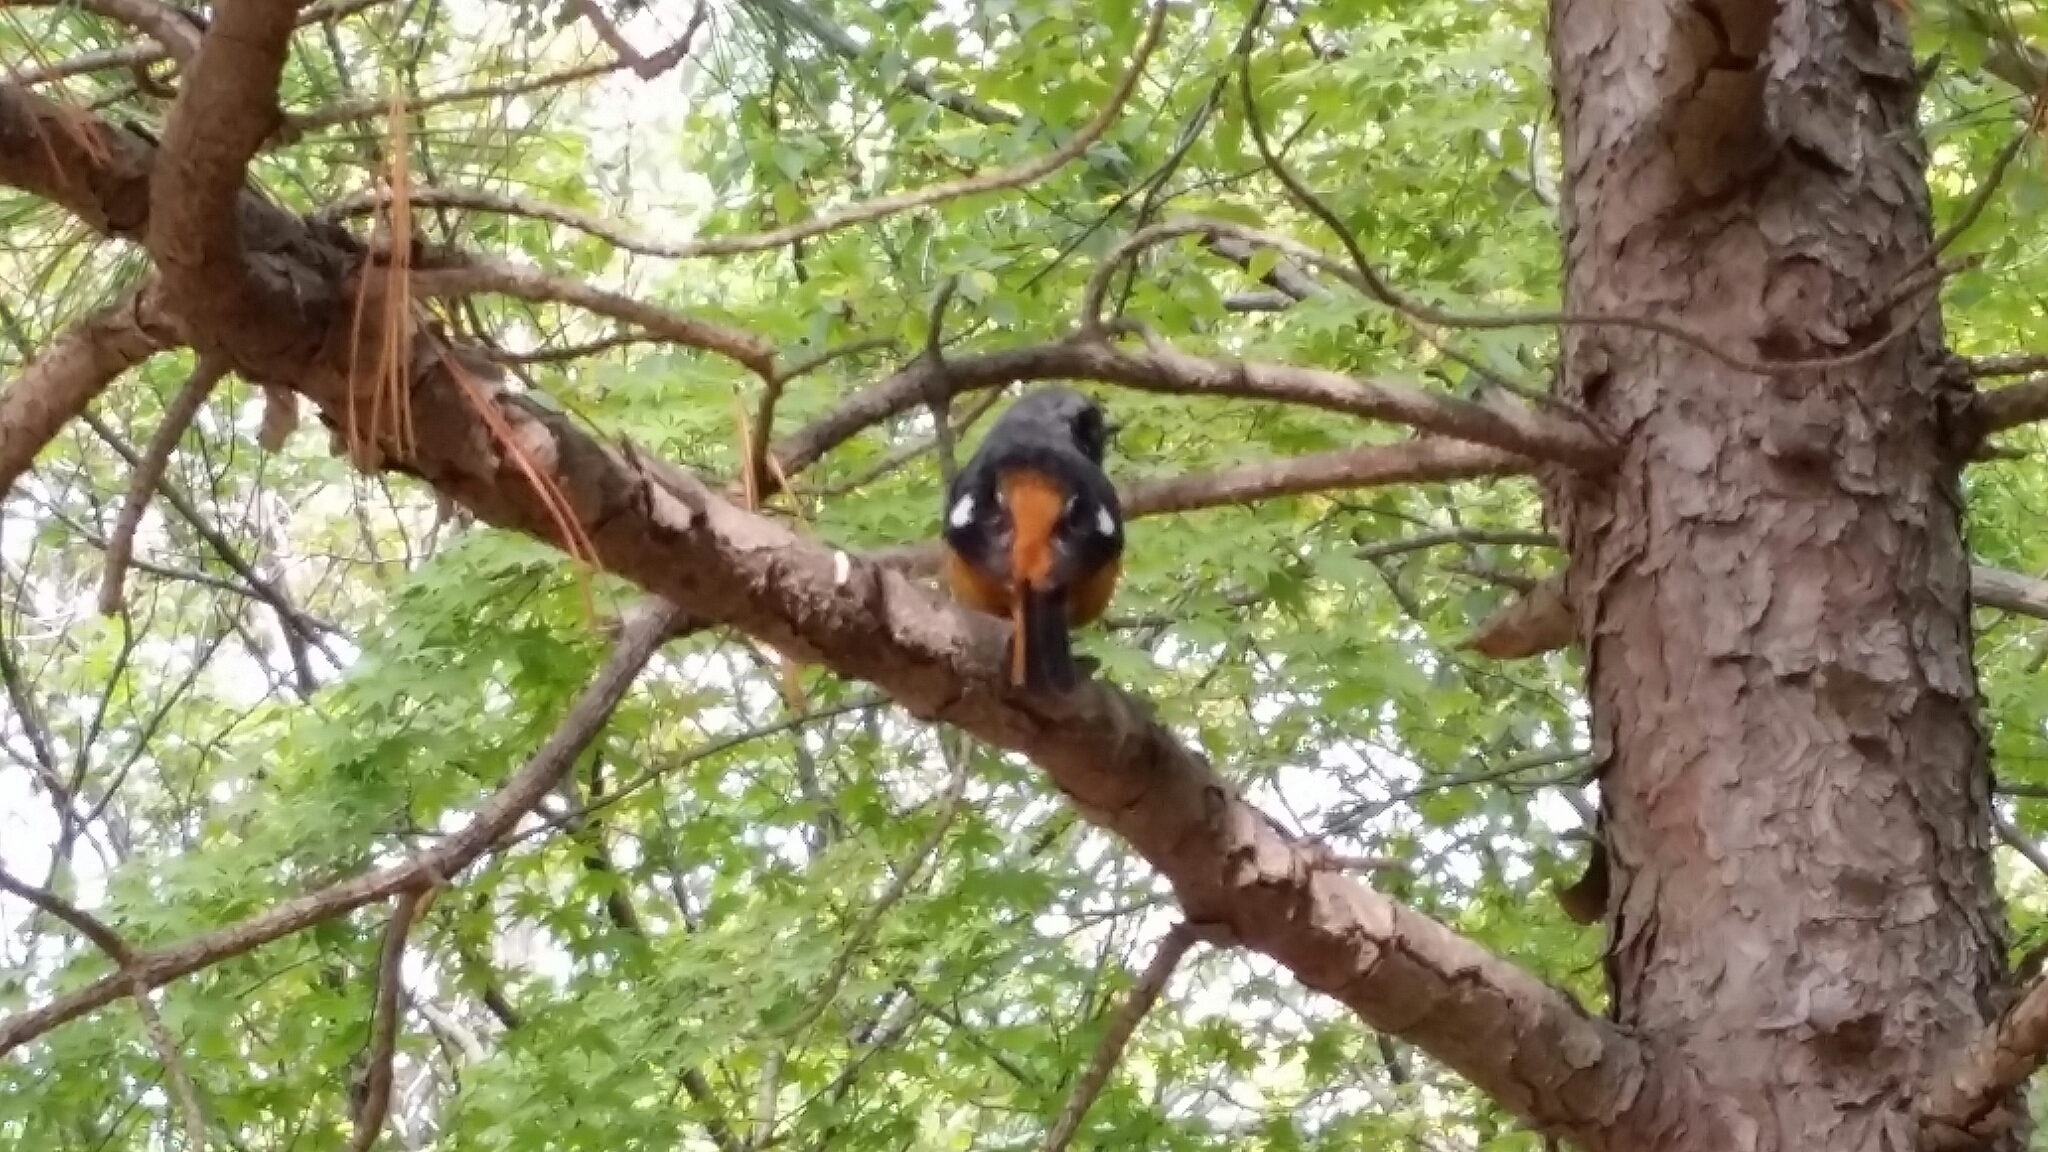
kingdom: Animalia
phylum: Chordata
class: Aves
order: Passeriformes
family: Muscicapidae
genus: Phoenicurus
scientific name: Phoenicurus auroreus
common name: Daurian redstart
